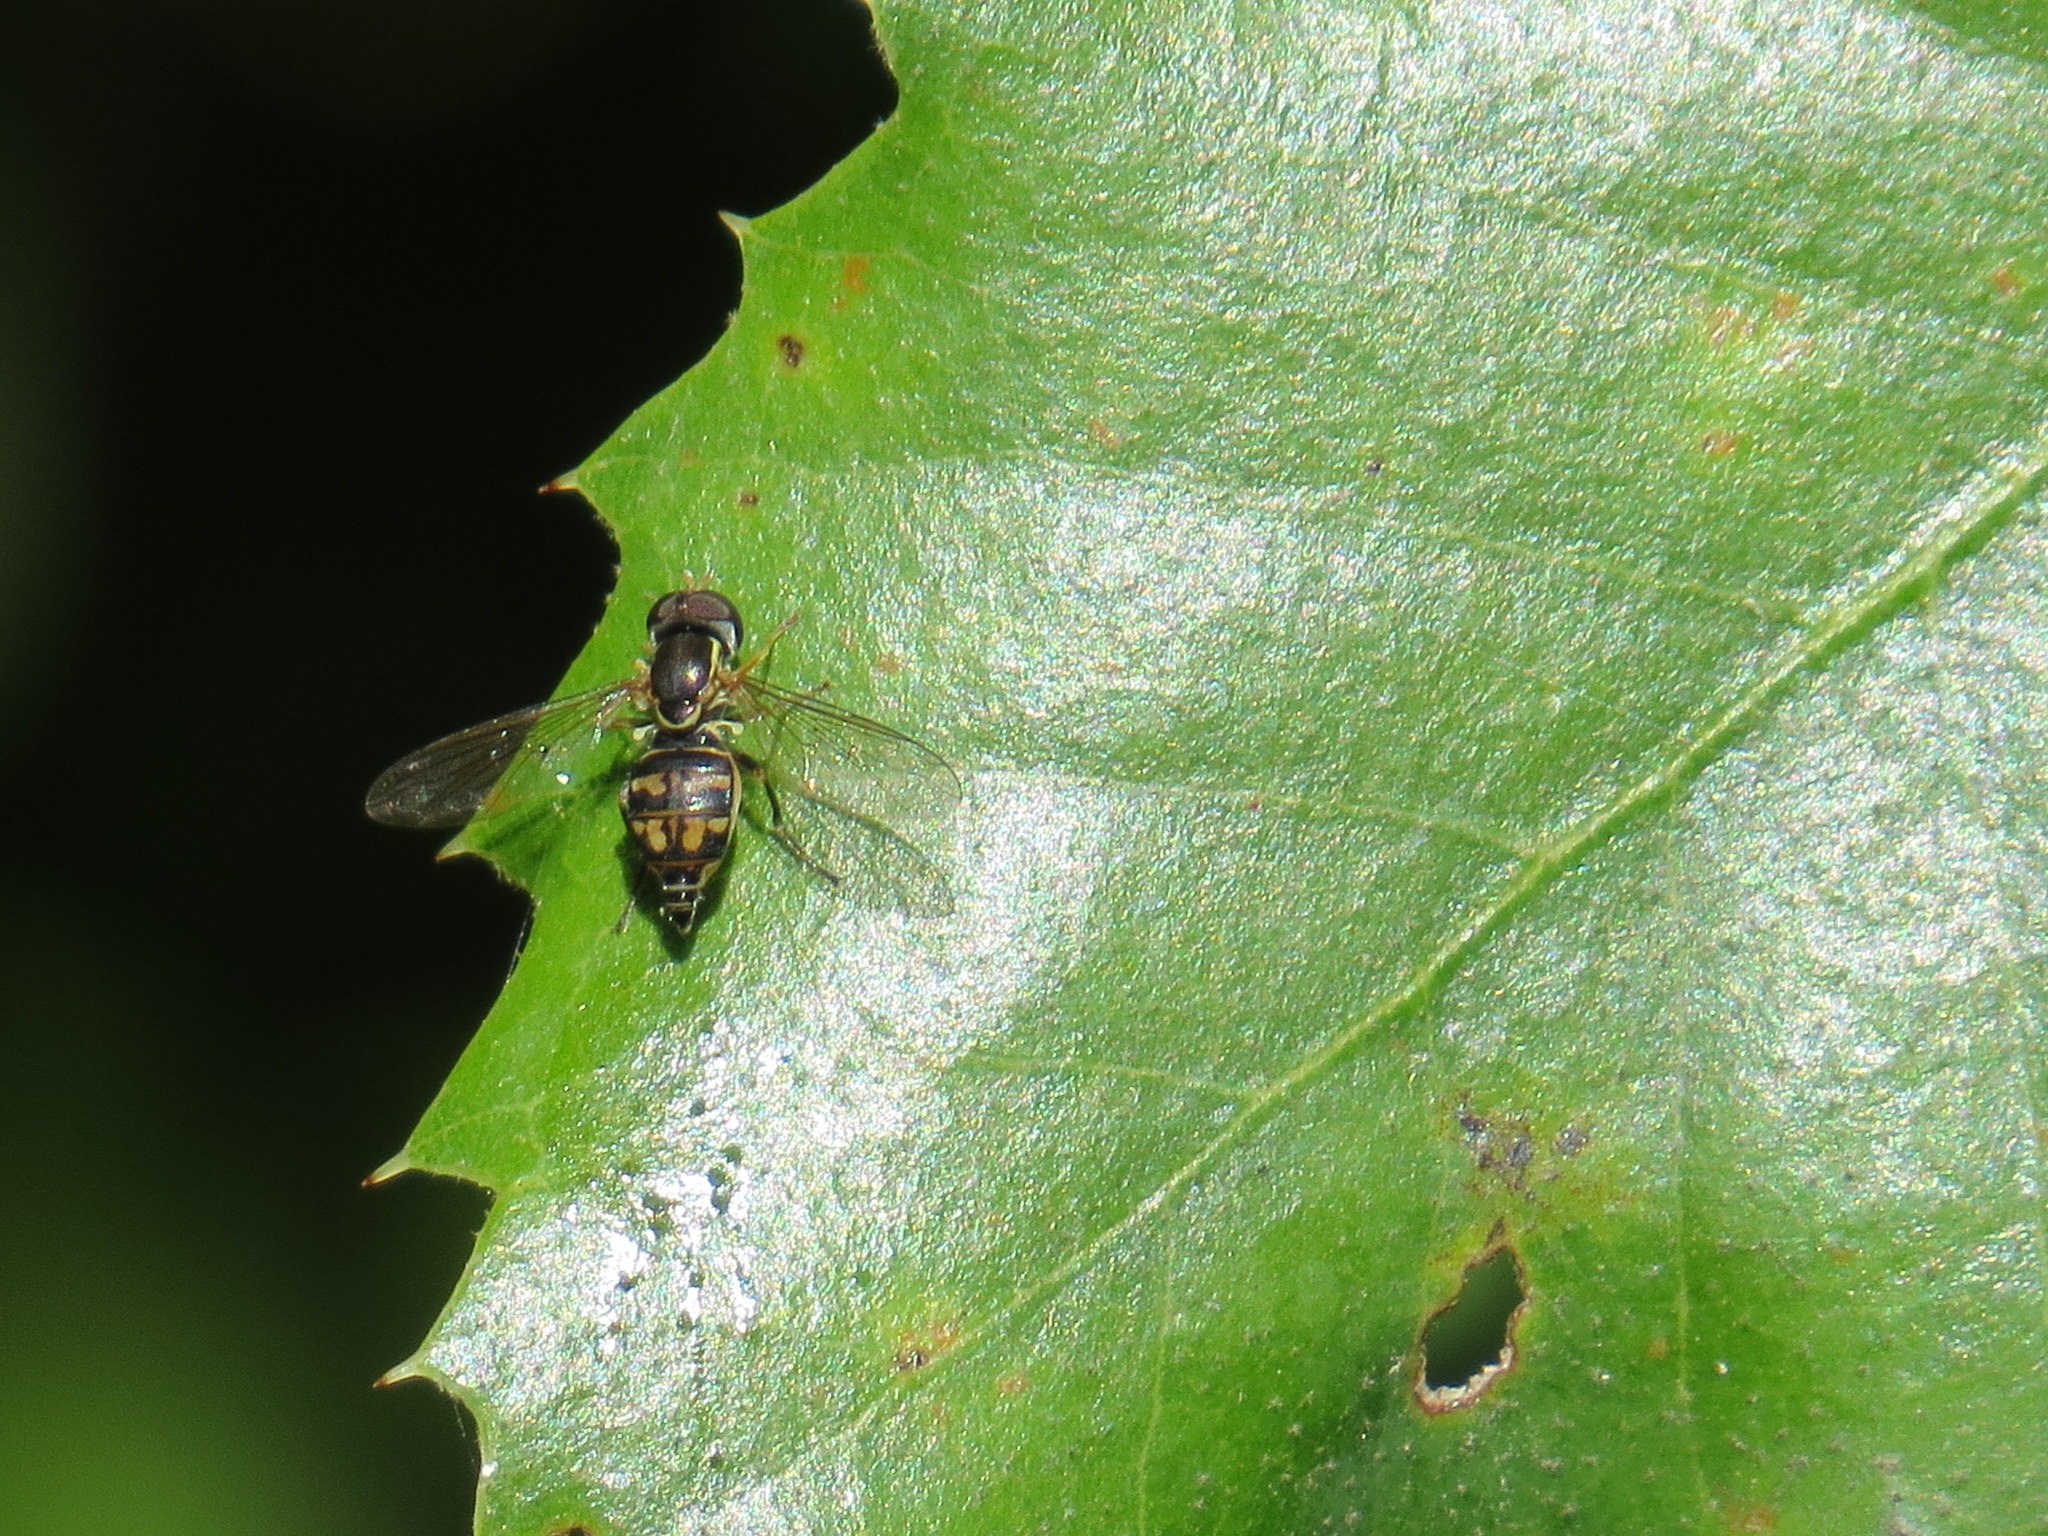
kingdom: Animalia
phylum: Arthropoda
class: Insecta
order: Diptera
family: Syrphidae
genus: Toxomerus
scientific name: Toxomerus occidentalis
